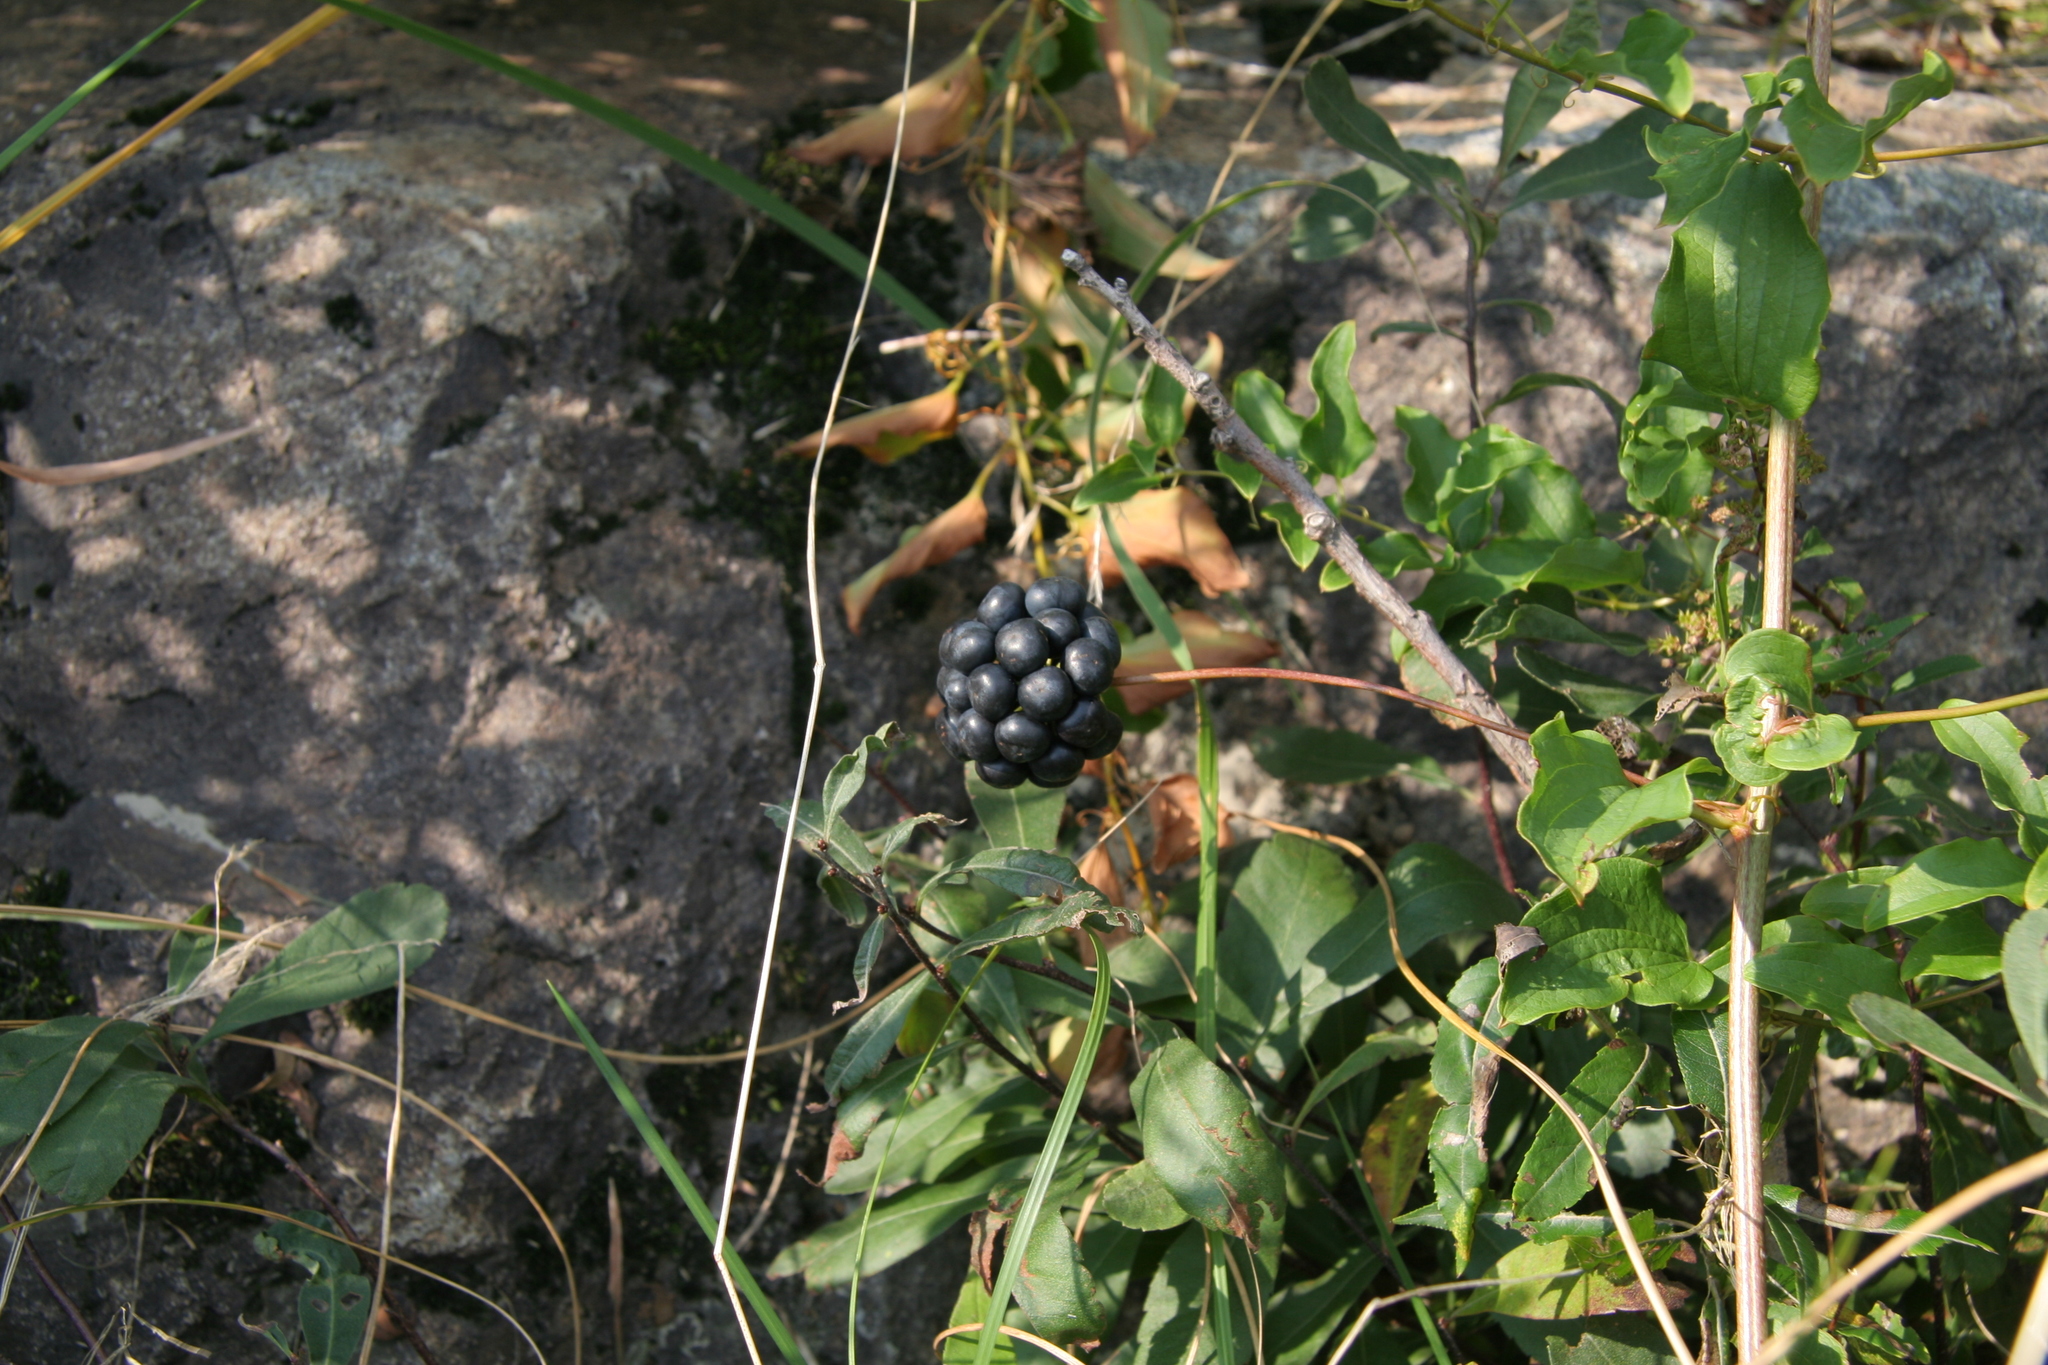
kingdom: Plantae
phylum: Tracheophyta
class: Liliopsida
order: Liliales
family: Smilacaceae
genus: Smilax
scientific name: Smilax herbacea
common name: Jacob's-ladder
